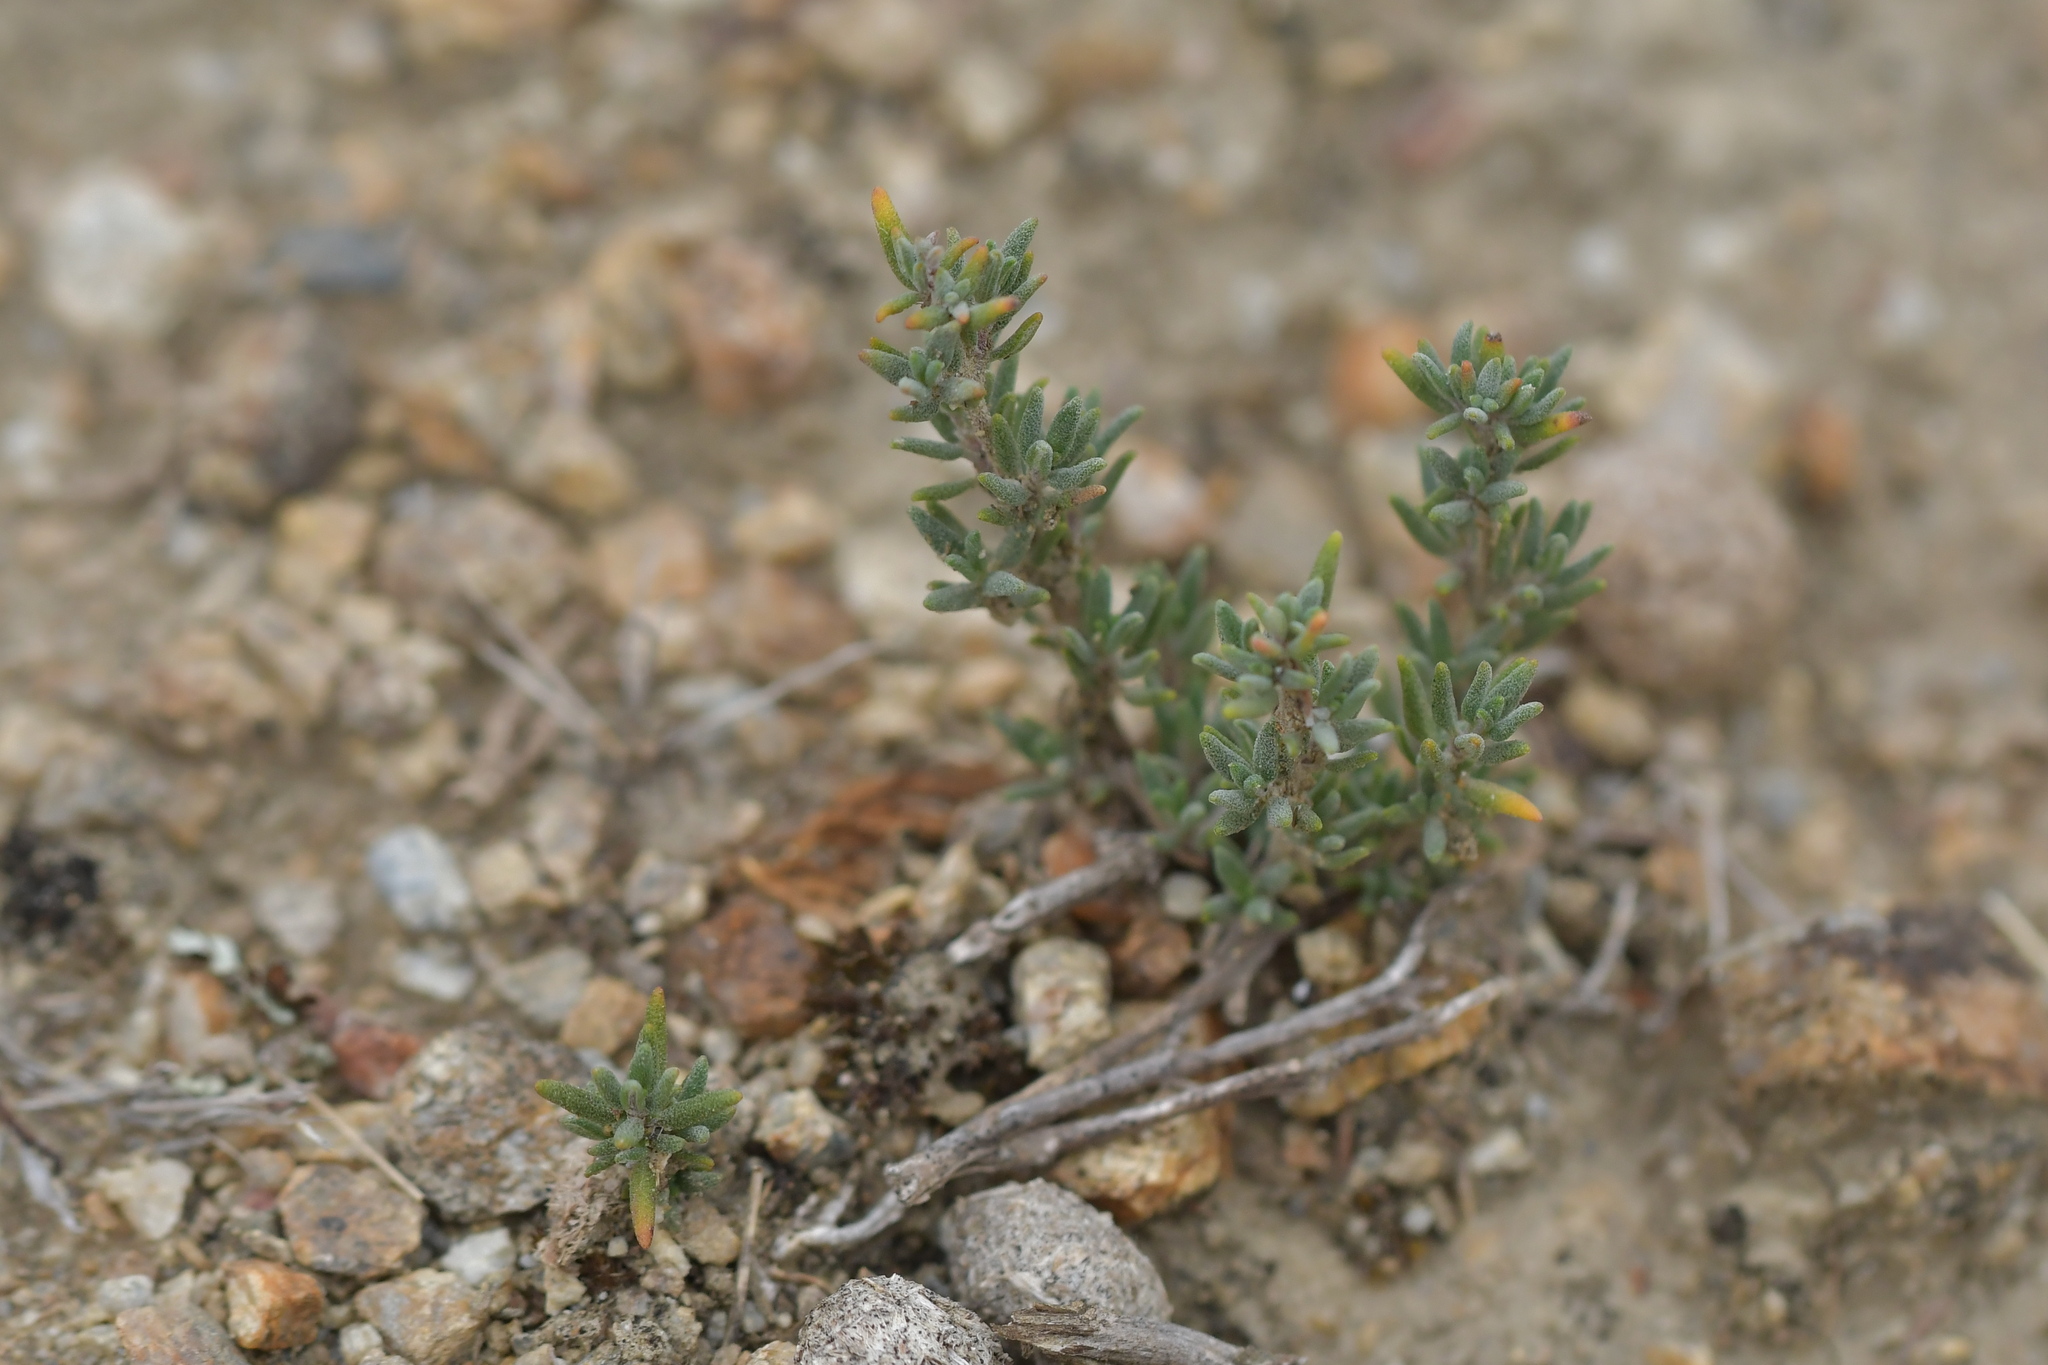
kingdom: Plantae
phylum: Tracheophyta
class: Magnoliopsida
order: Lamiales
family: Lamiaceae
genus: Thymus
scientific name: Thymus vulgaris
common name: Garden thyme
